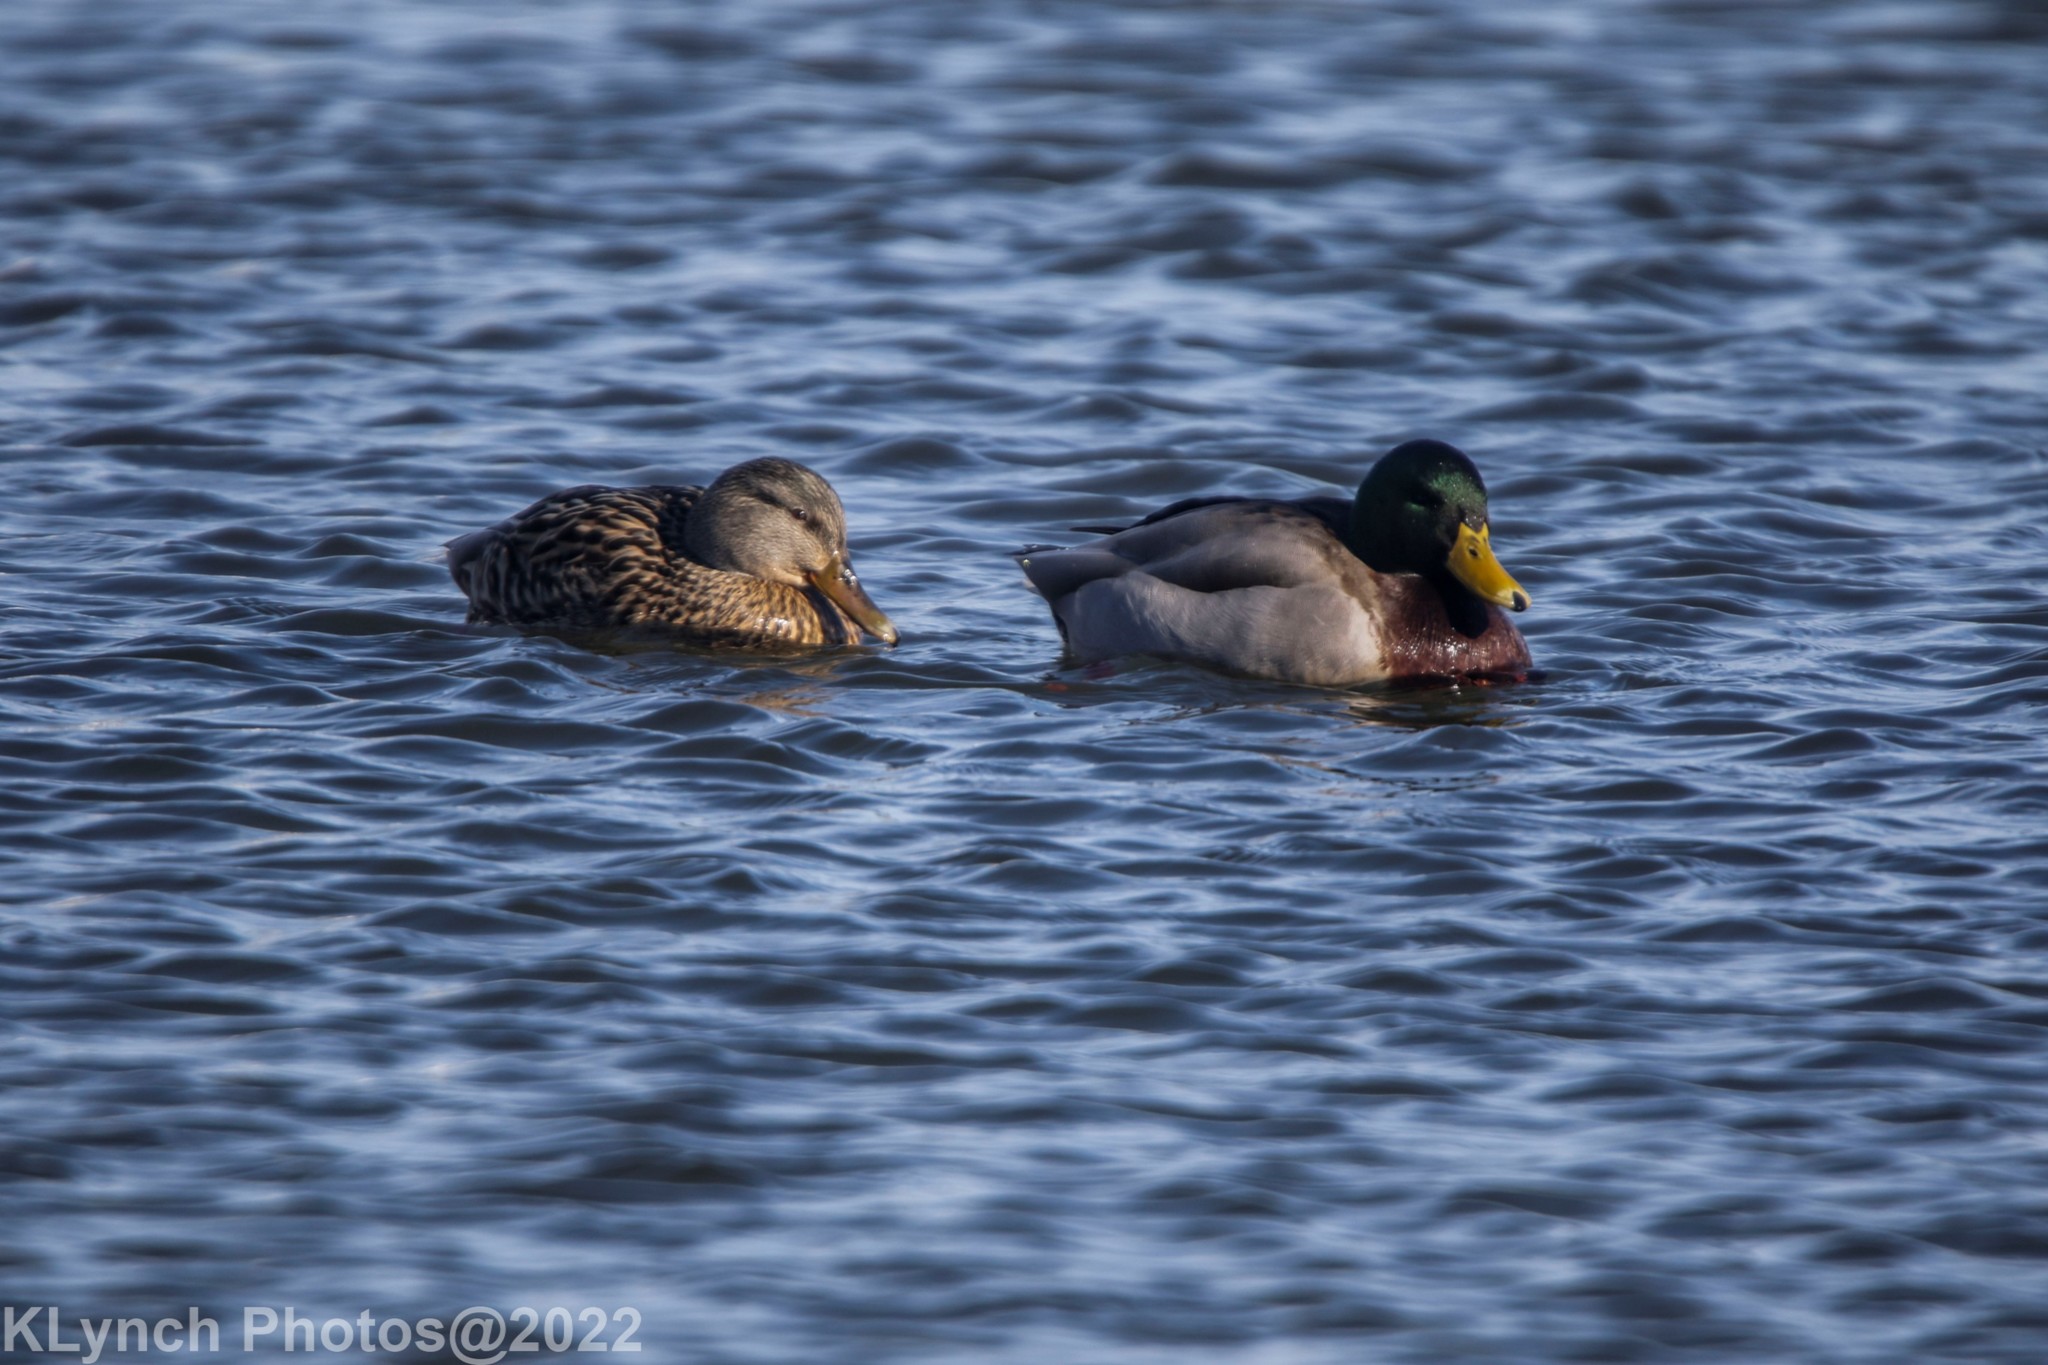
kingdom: Animalia
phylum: Chordata
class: Aves
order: Anseriformes
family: Anatidae
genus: Anas
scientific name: Anas platyrhynchos
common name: Mallard
